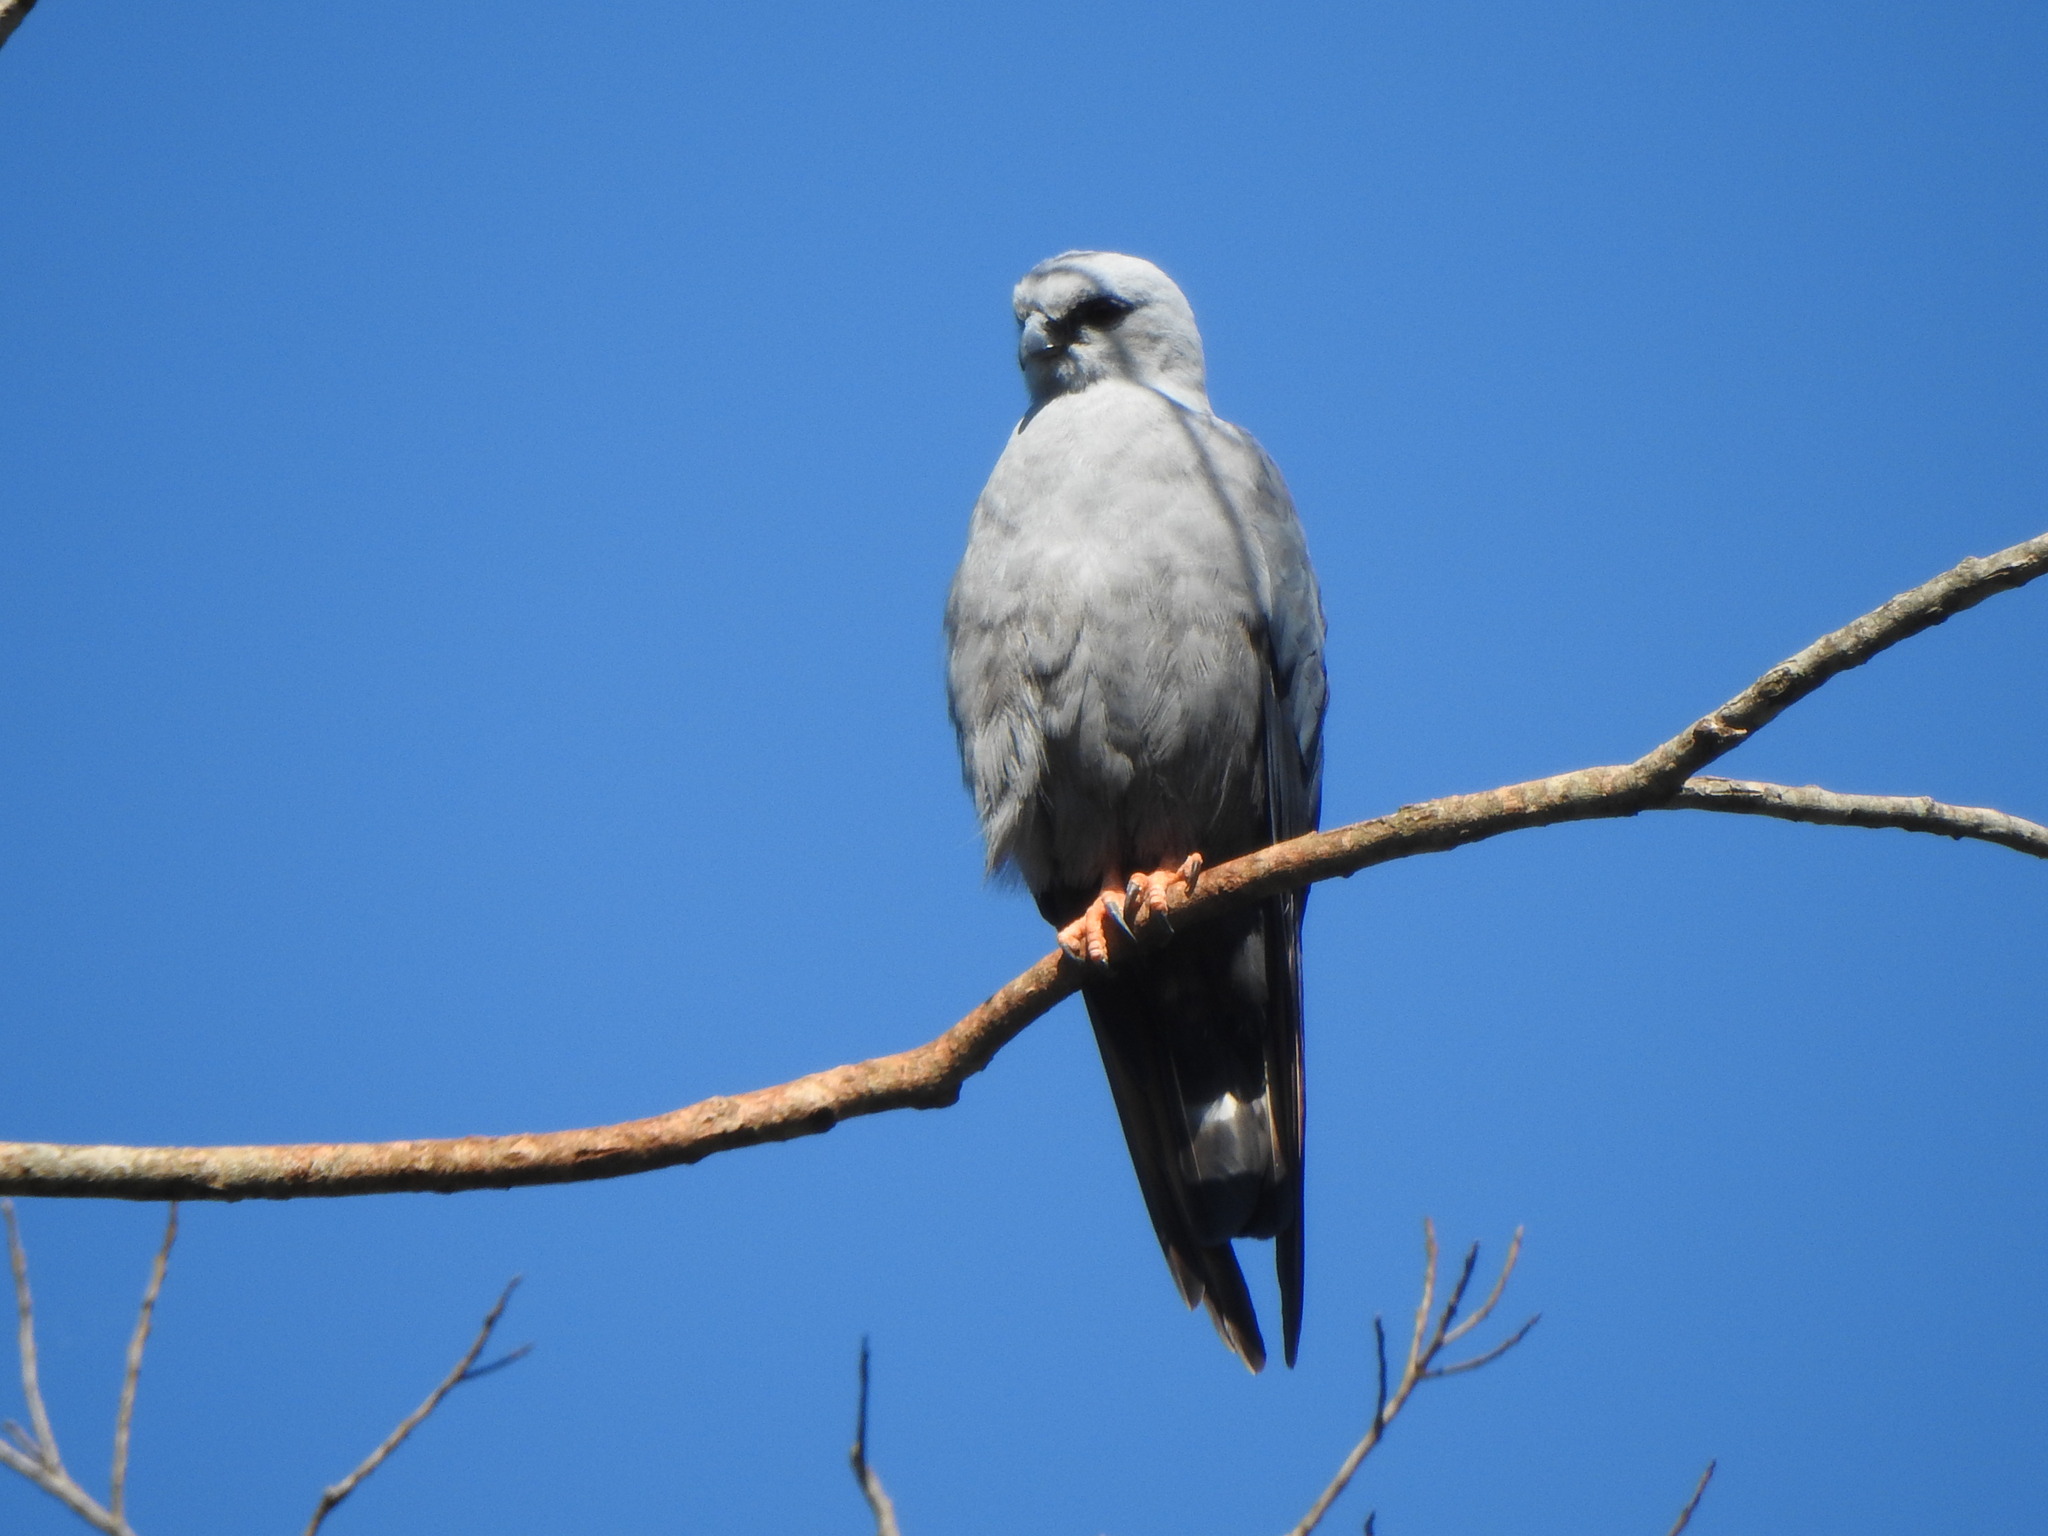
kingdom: Animalia
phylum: Chordata
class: Aves
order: Accipitriformes
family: Accipitridae
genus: Ictinia
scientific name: Ictinia plumbea
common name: Plumbeous kite
